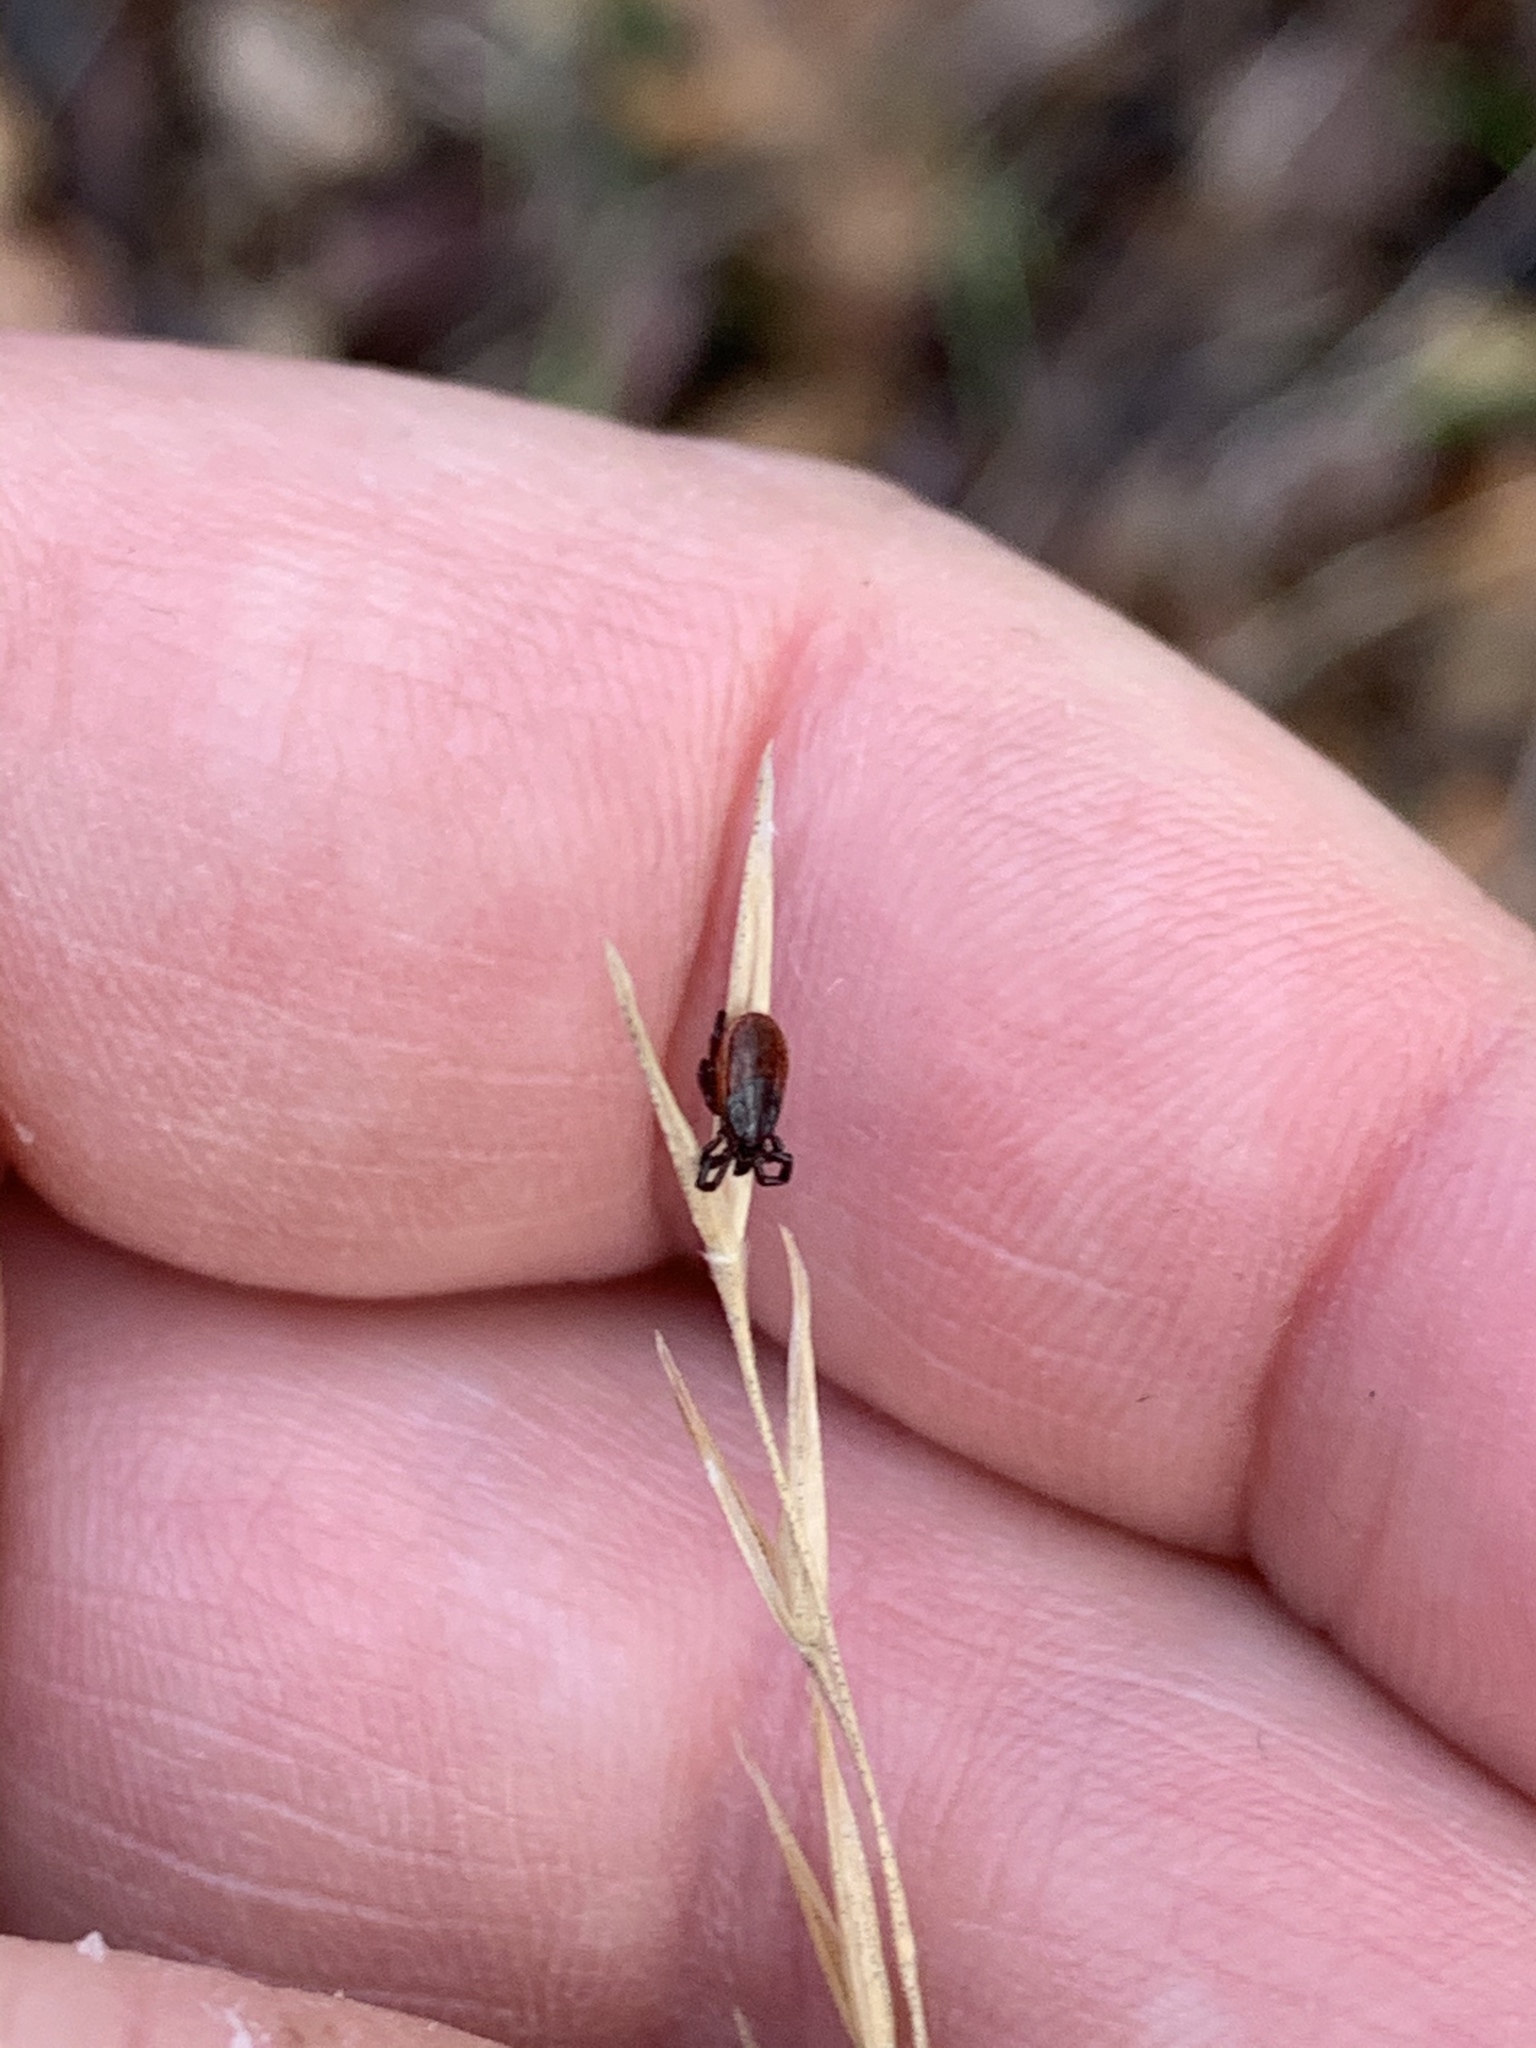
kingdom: Animalia
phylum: Arthropoda
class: Arachnida
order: Ixodida
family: Ixodidae
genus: Ixodes
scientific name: Ixodes pacificus
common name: California black-legged tick
